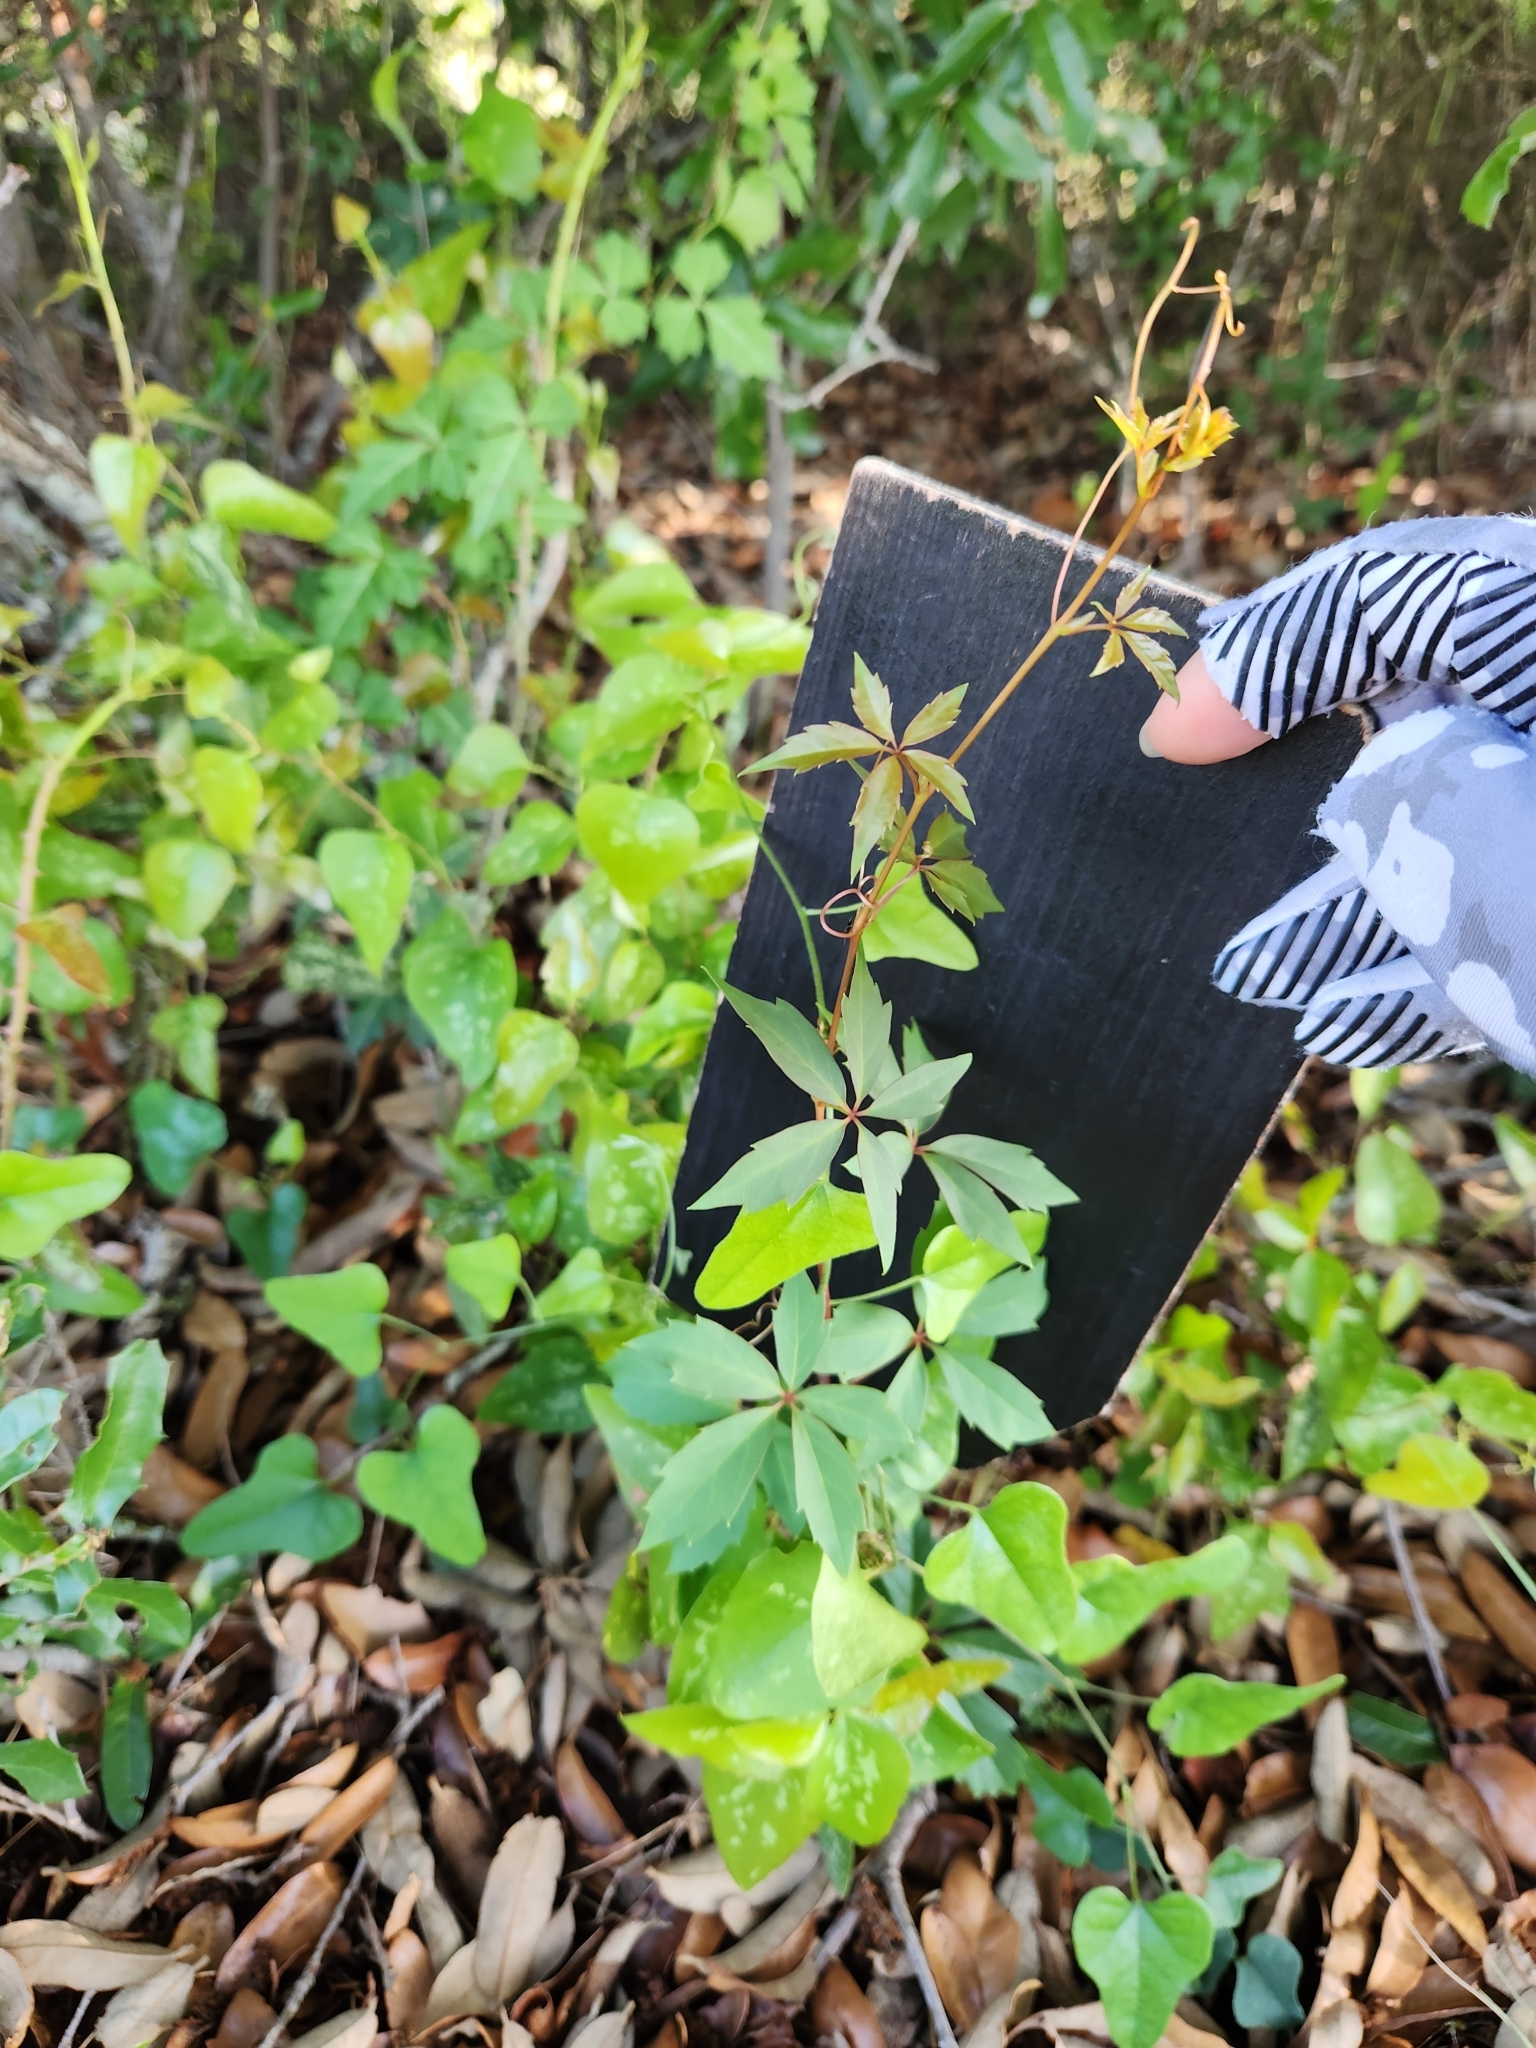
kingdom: Plantae
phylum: Tracheophyta
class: Magnoliopsida
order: Vitales
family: Vitaceae
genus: Parthenocissus
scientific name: Parthenocissus quinquefolia
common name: Virginia-creeper
